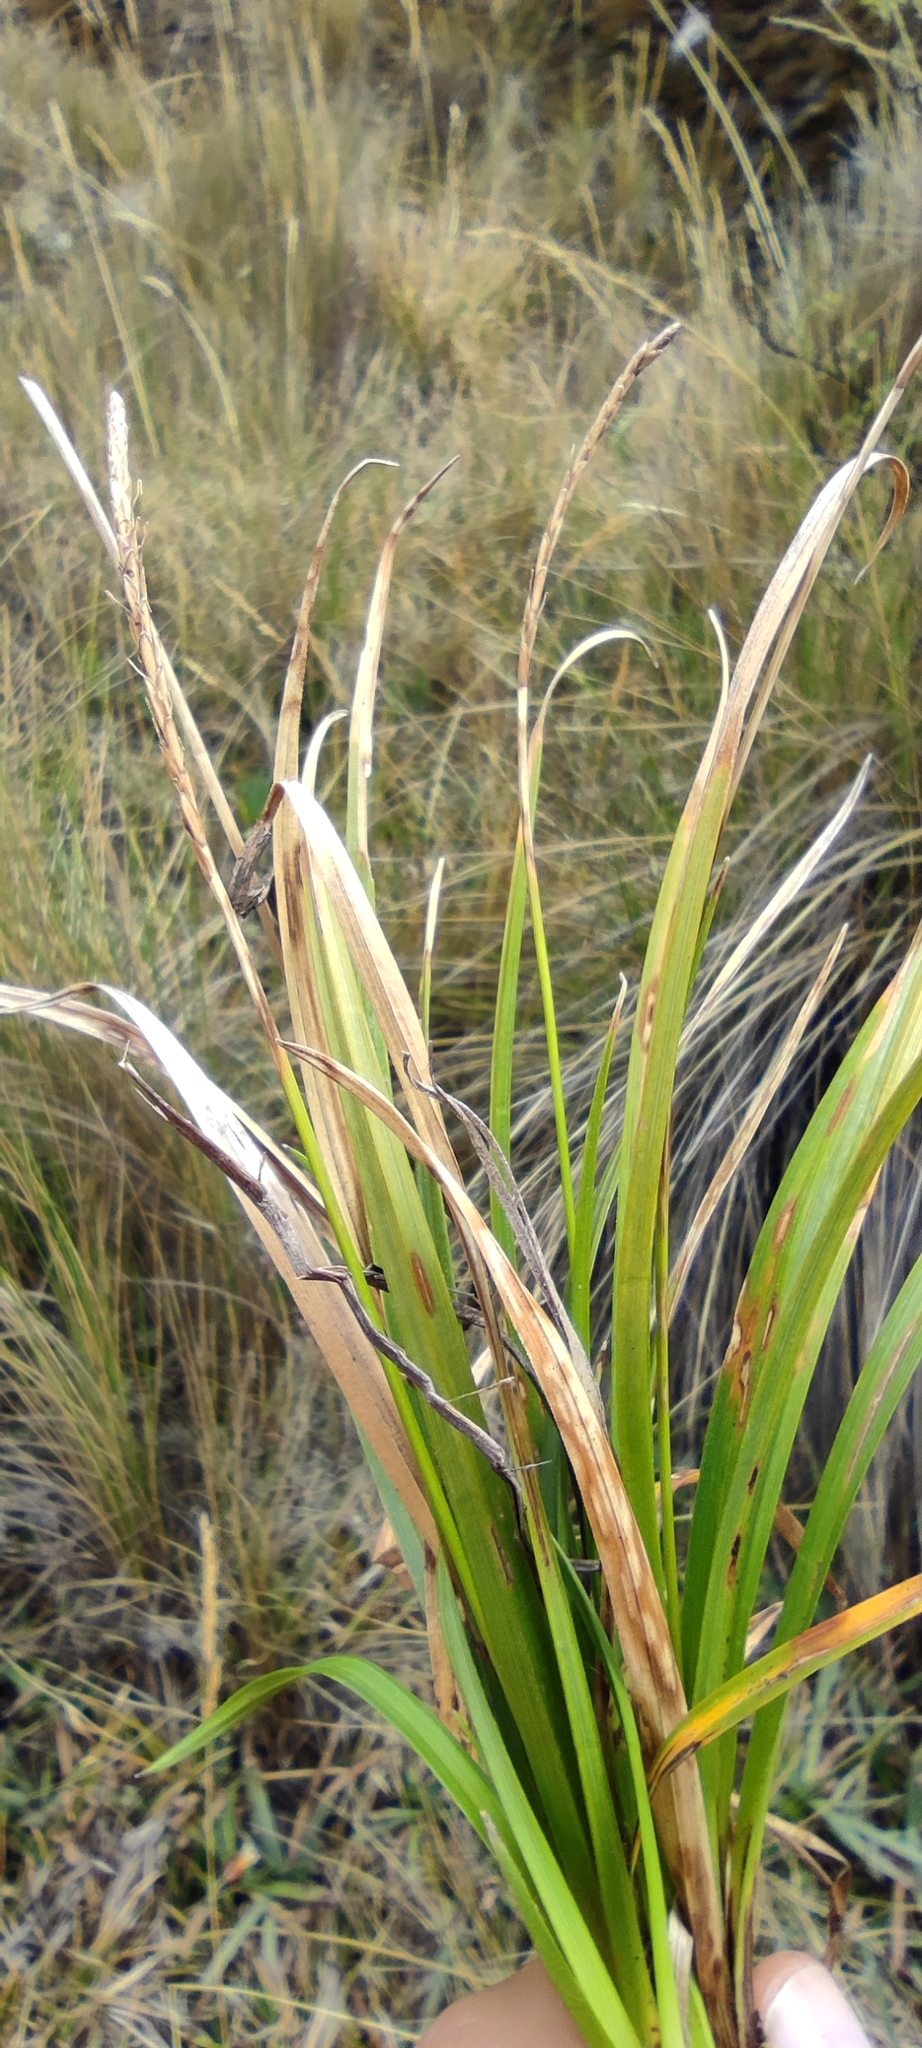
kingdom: Plantae
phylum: Tracheophyta
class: Liliopsida
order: Poales
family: Cyperaceae
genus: Carex
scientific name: Carex laegaardii
